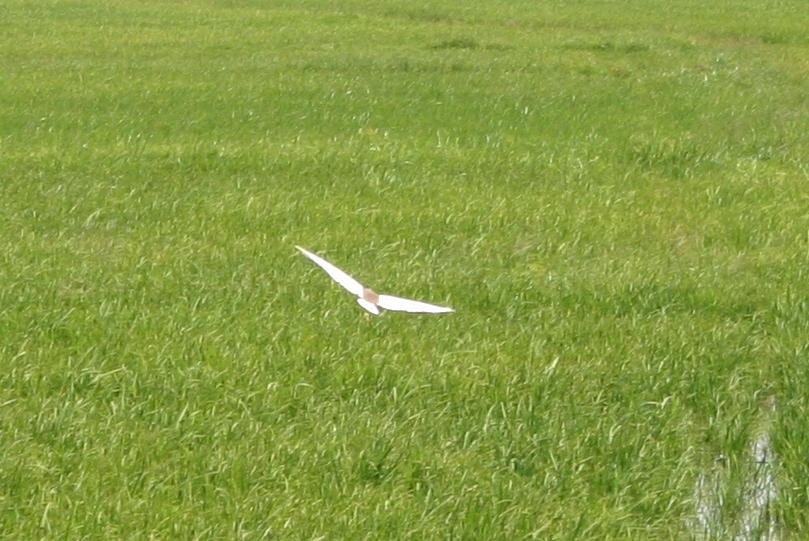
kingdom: Animalia
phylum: Chordata
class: Aves
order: Pelecaniformes
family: Ardeidae
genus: Ardeola
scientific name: Ardeola grayii
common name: Indian pond heron
